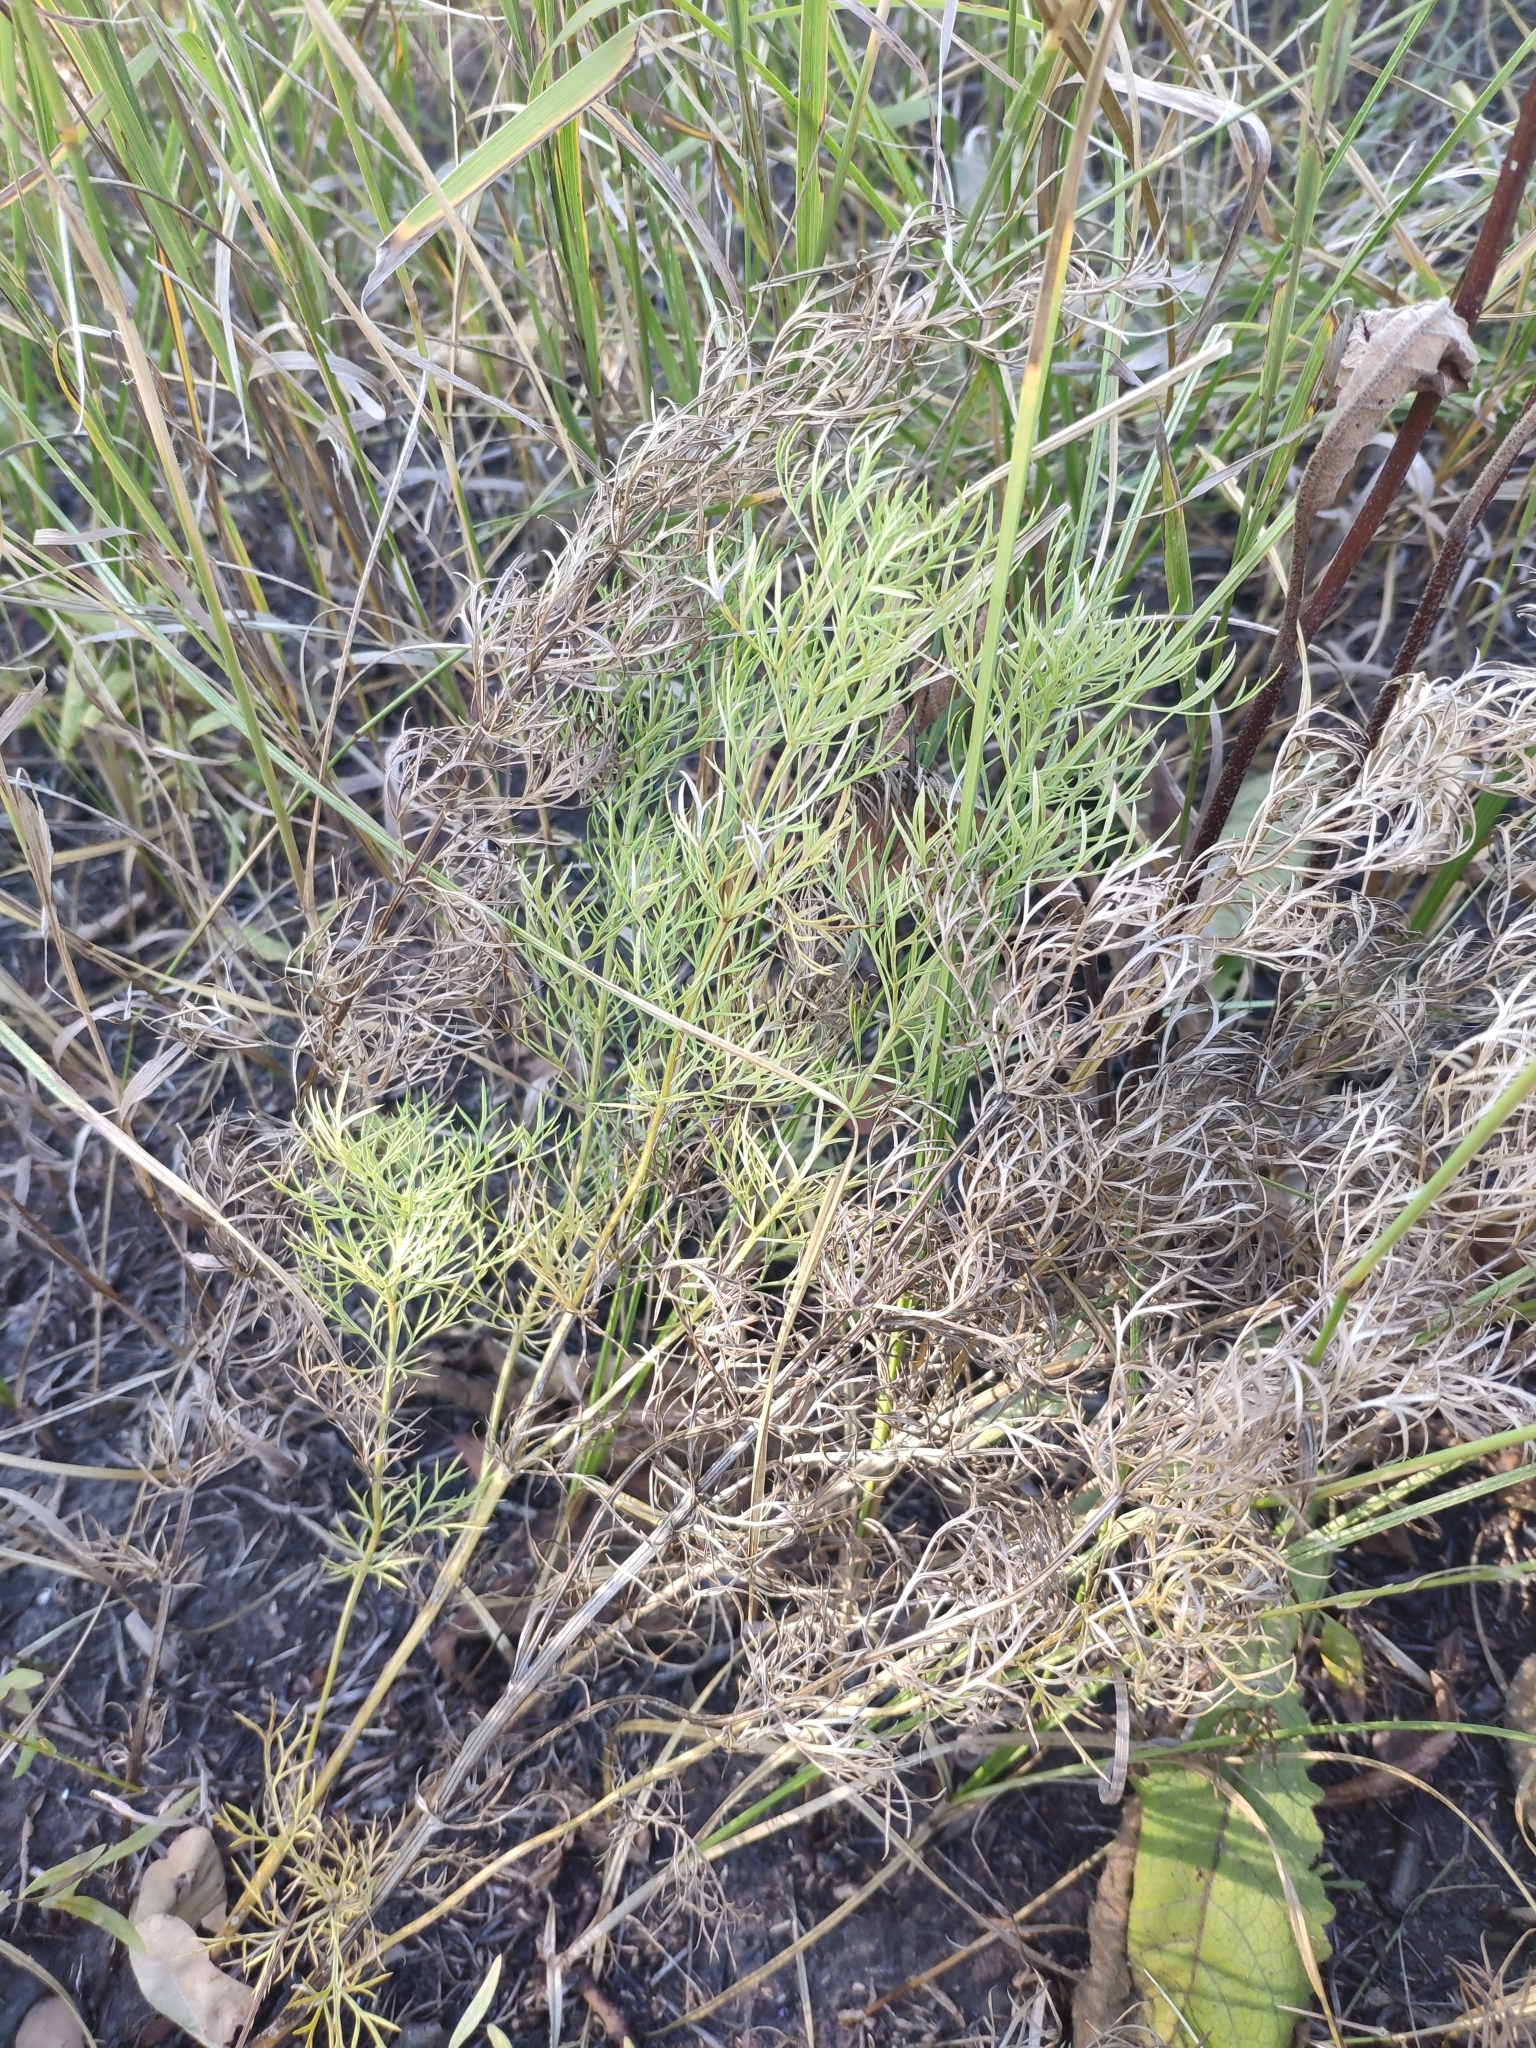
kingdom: Plantae
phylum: Tracheophyta
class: Magnoliopsida
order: Ranunculales
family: Ranunculaceae
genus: Adonis
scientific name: Adonis vernalis
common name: Yellow pheasants-eye
